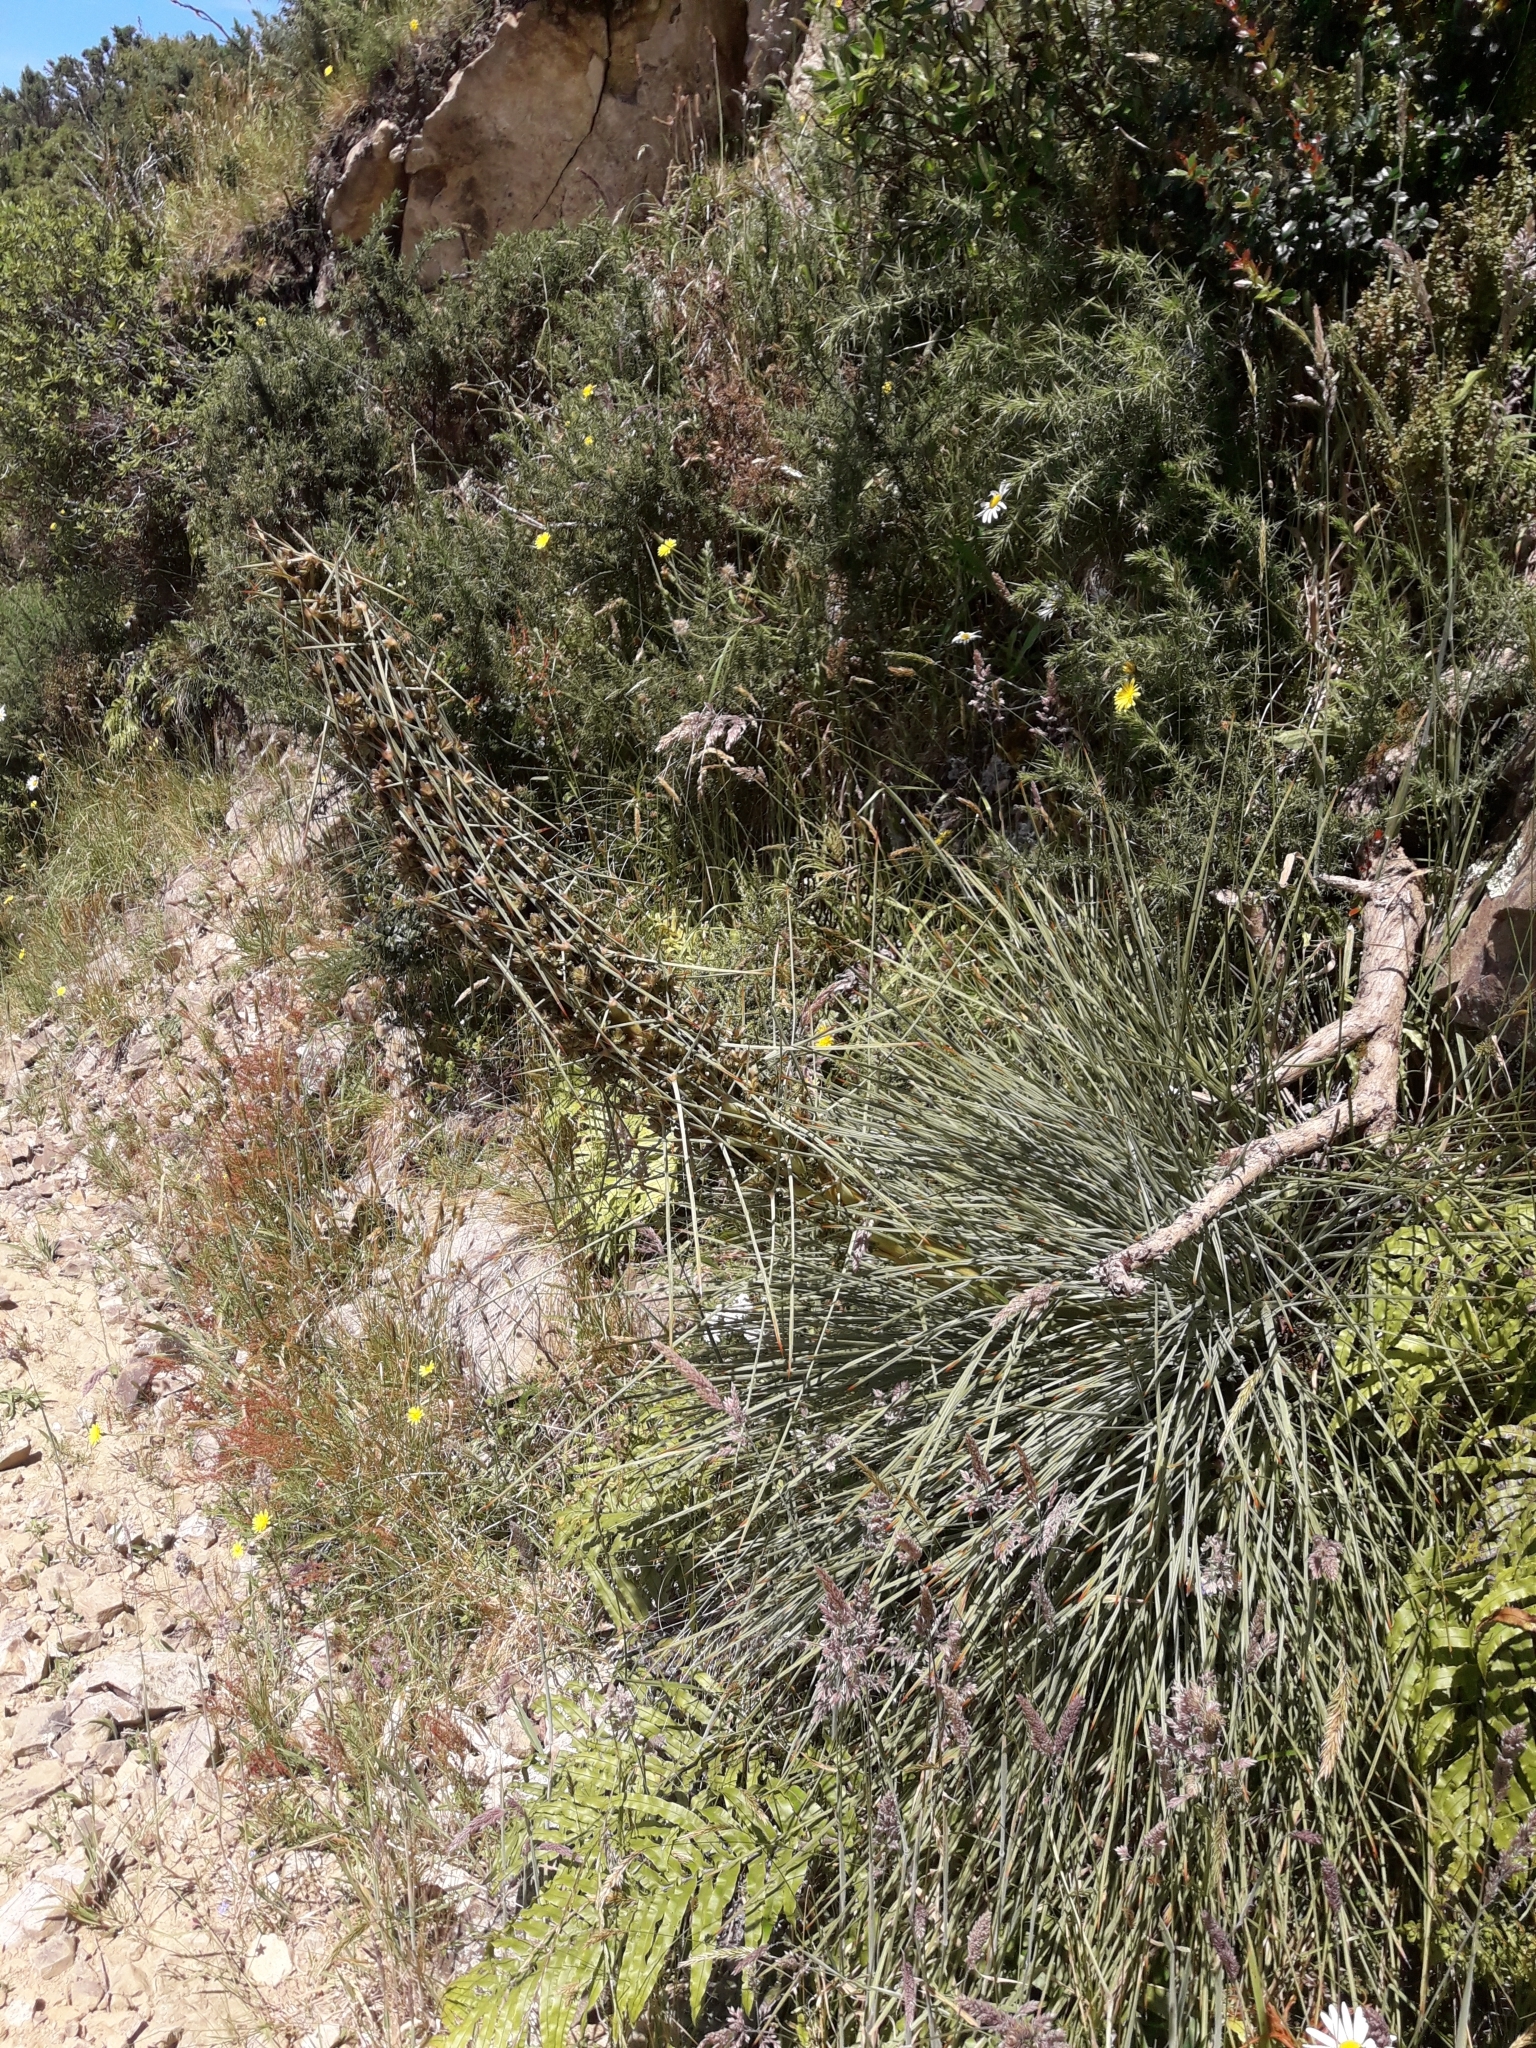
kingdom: Plantae
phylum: Tracheophyta
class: Magnoliopsida
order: Apiales
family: Apiaceae
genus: Aciphylla
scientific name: Aciphylla squarrosa
